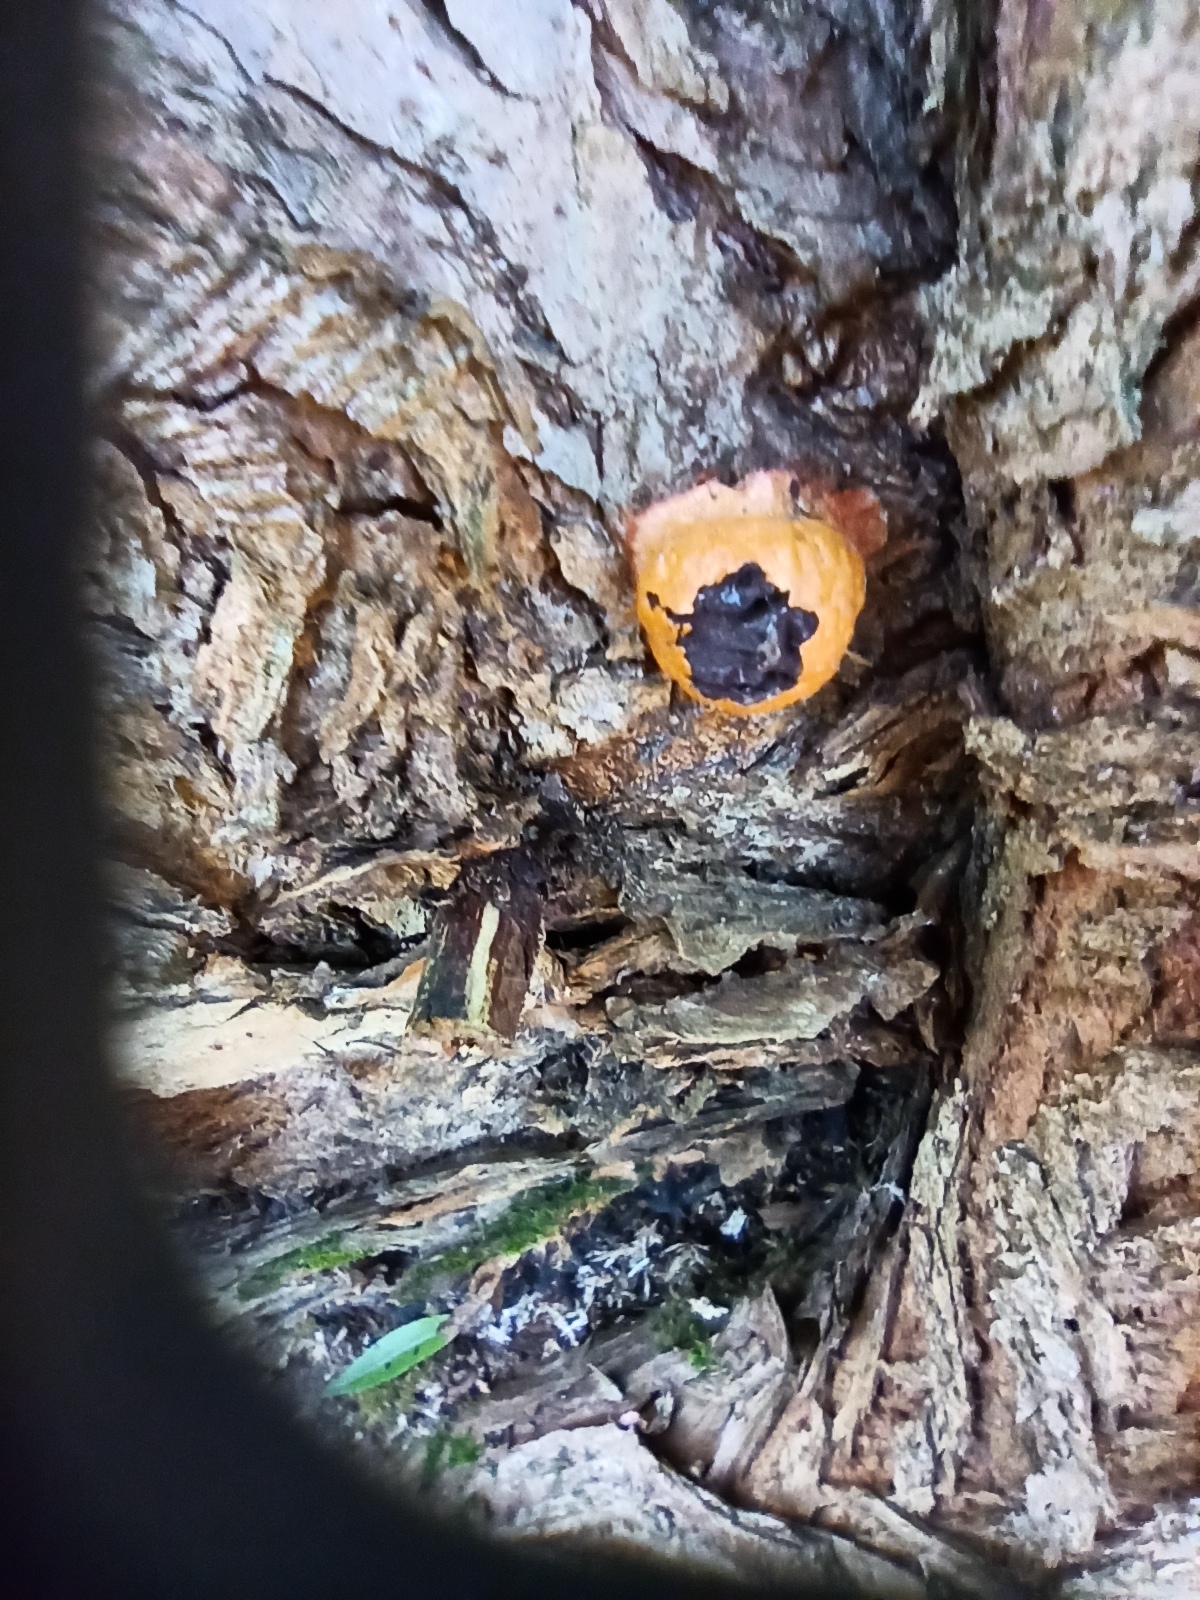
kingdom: Protozoa
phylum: Mycetozoa
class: Myxomycetes
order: Physarales
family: Physaraceae
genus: Fuligo
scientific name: Fuligo leviderma
